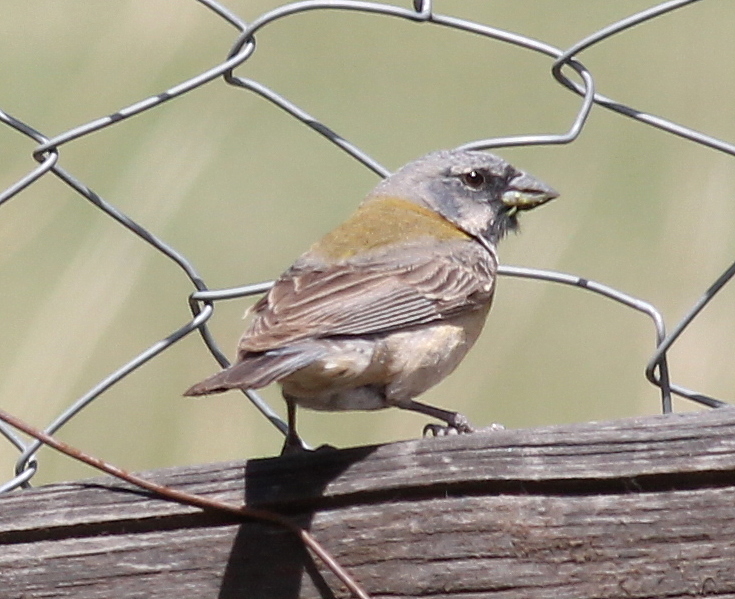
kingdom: Animalia
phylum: Chordata
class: Aves
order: Passeriformes
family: Thraupidae
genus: Phrygilus
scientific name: Phrygilus gayi
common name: Grey-hooded sierra finch
